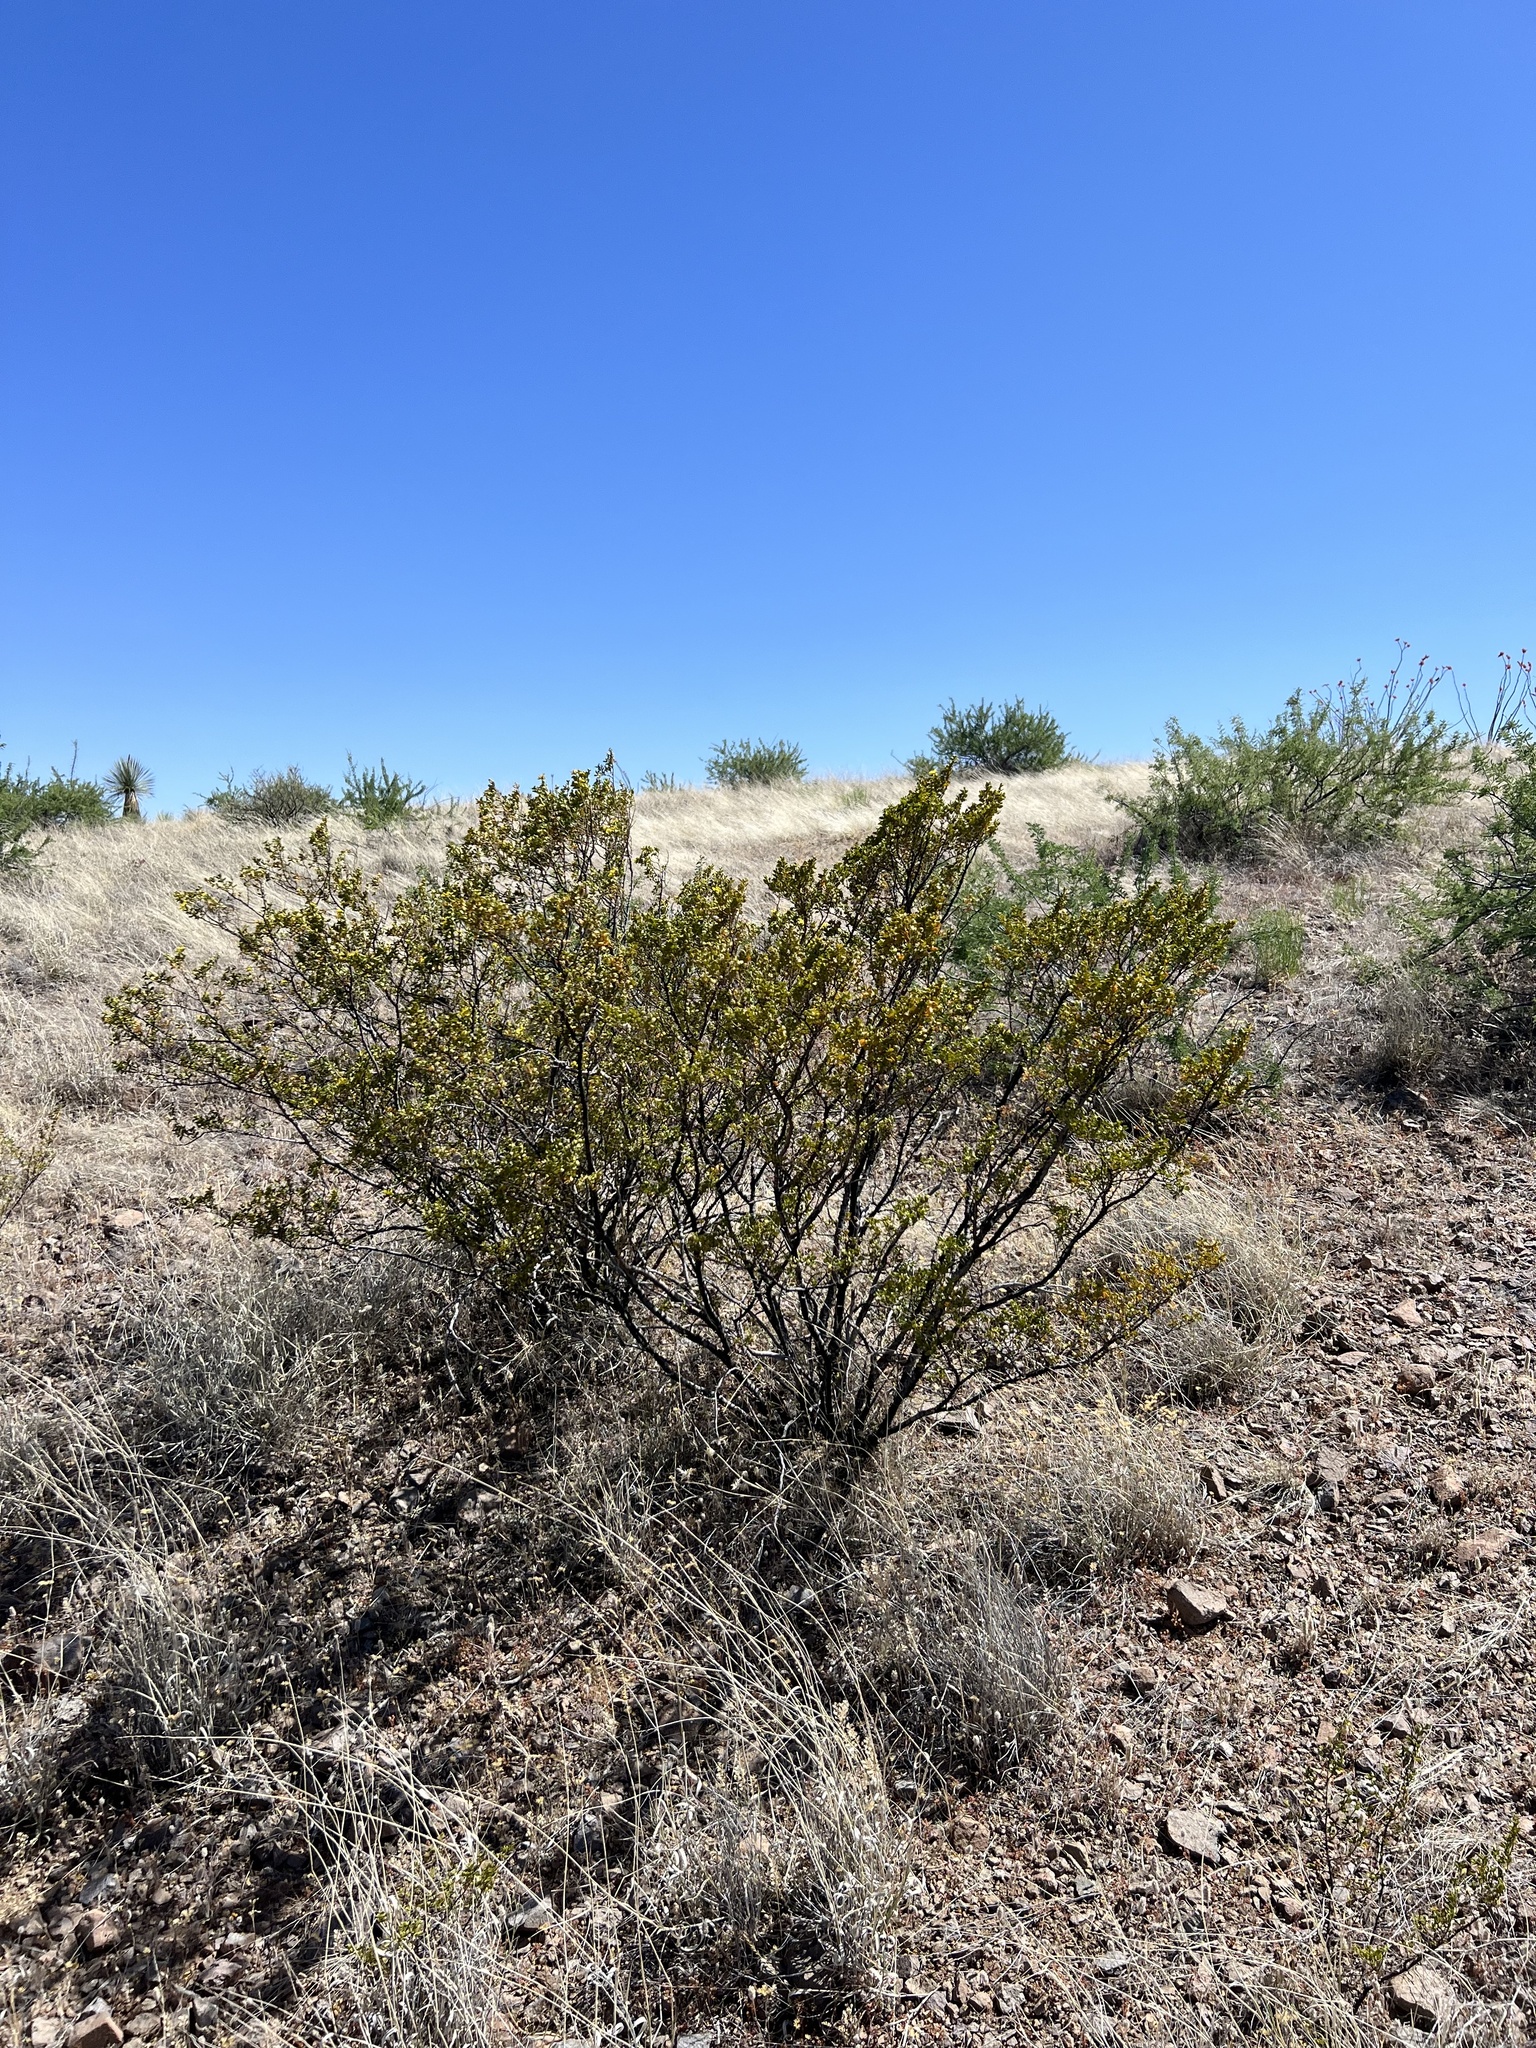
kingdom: Plantae
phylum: Tracheophyta
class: Magnoliopsida
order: Zygophyllales
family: Zygophyllaceae
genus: Larrea
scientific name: Larrea tridentata
